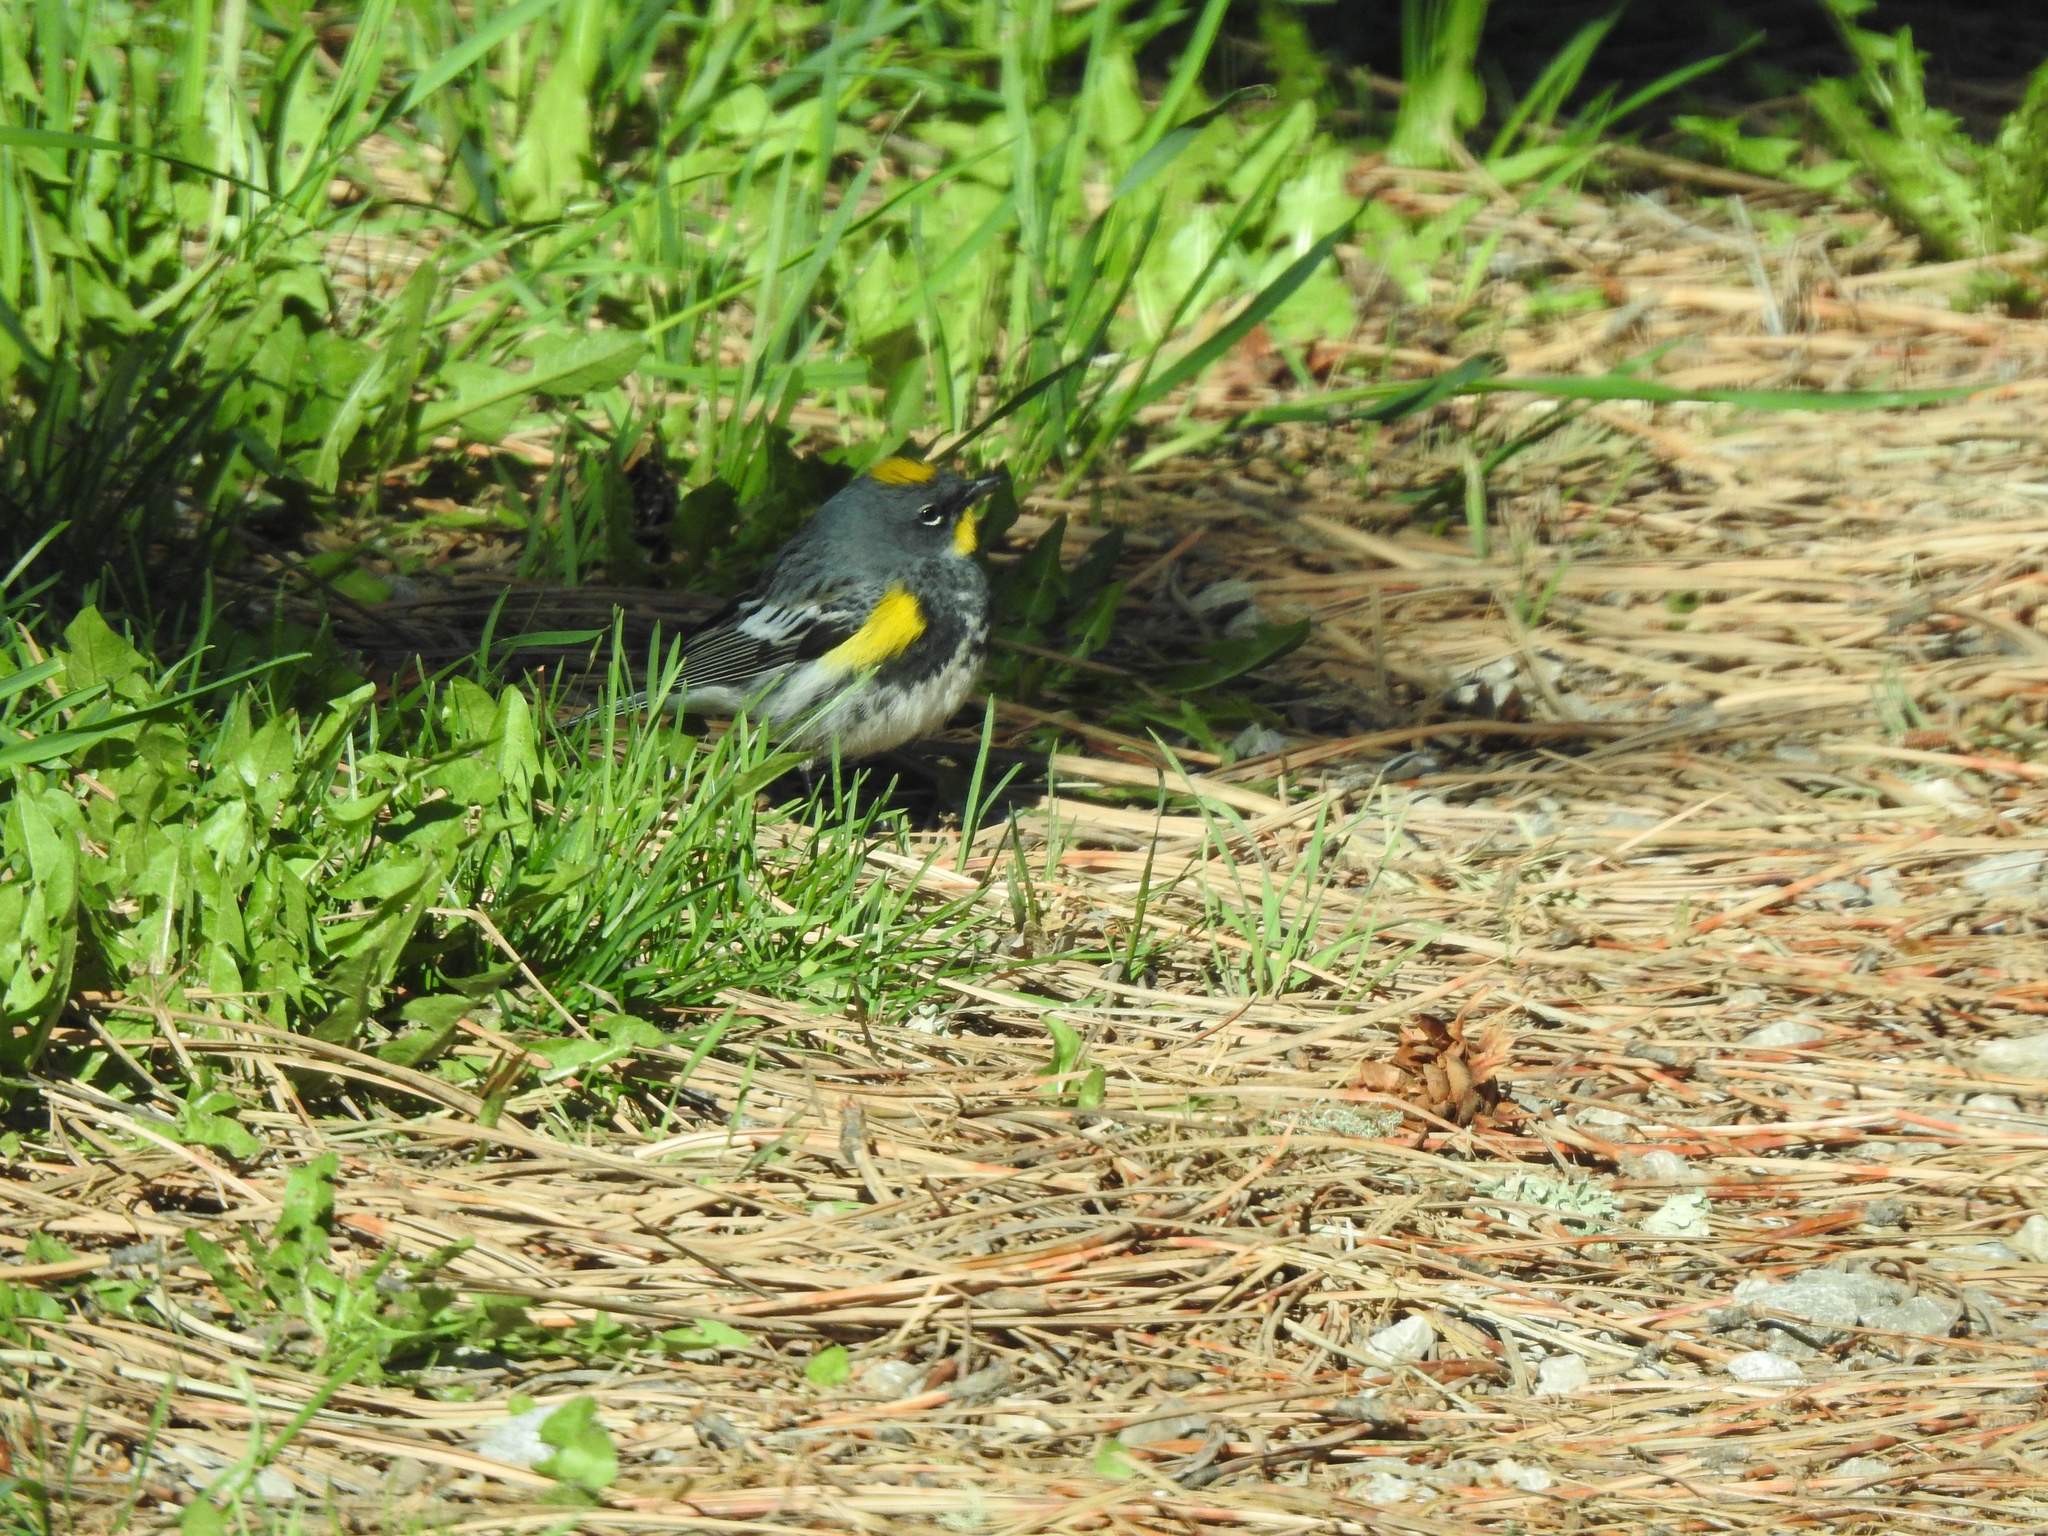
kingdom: Animalia
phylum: Chordata
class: Aves
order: Passeriformes
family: Parulidae
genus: Setophaga
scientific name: Setophaga coronata
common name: Myrtle warbler
